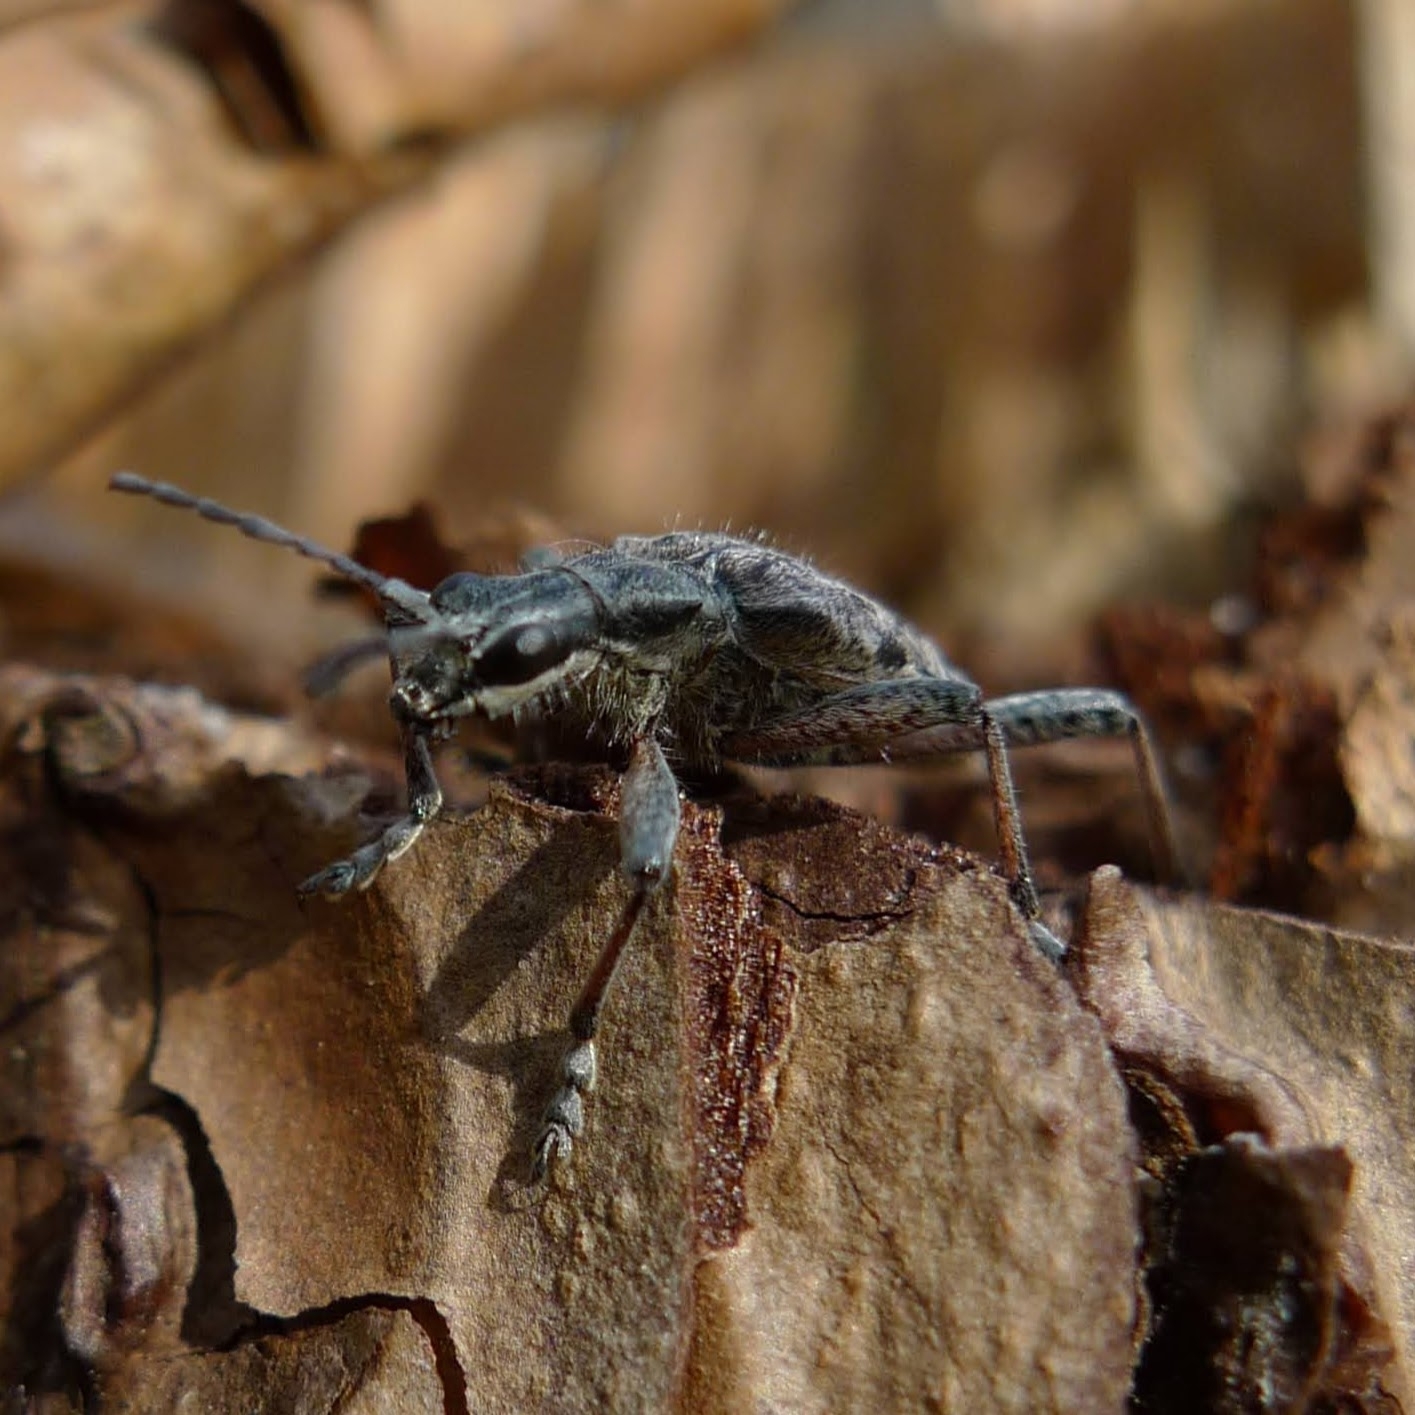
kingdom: Animalia
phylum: Arthropoda
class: Insecta
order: Coleoptera
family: Cerambycidae
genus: Rhagium
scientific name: Rhagium inquisitor
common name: Ribbed pine borer
